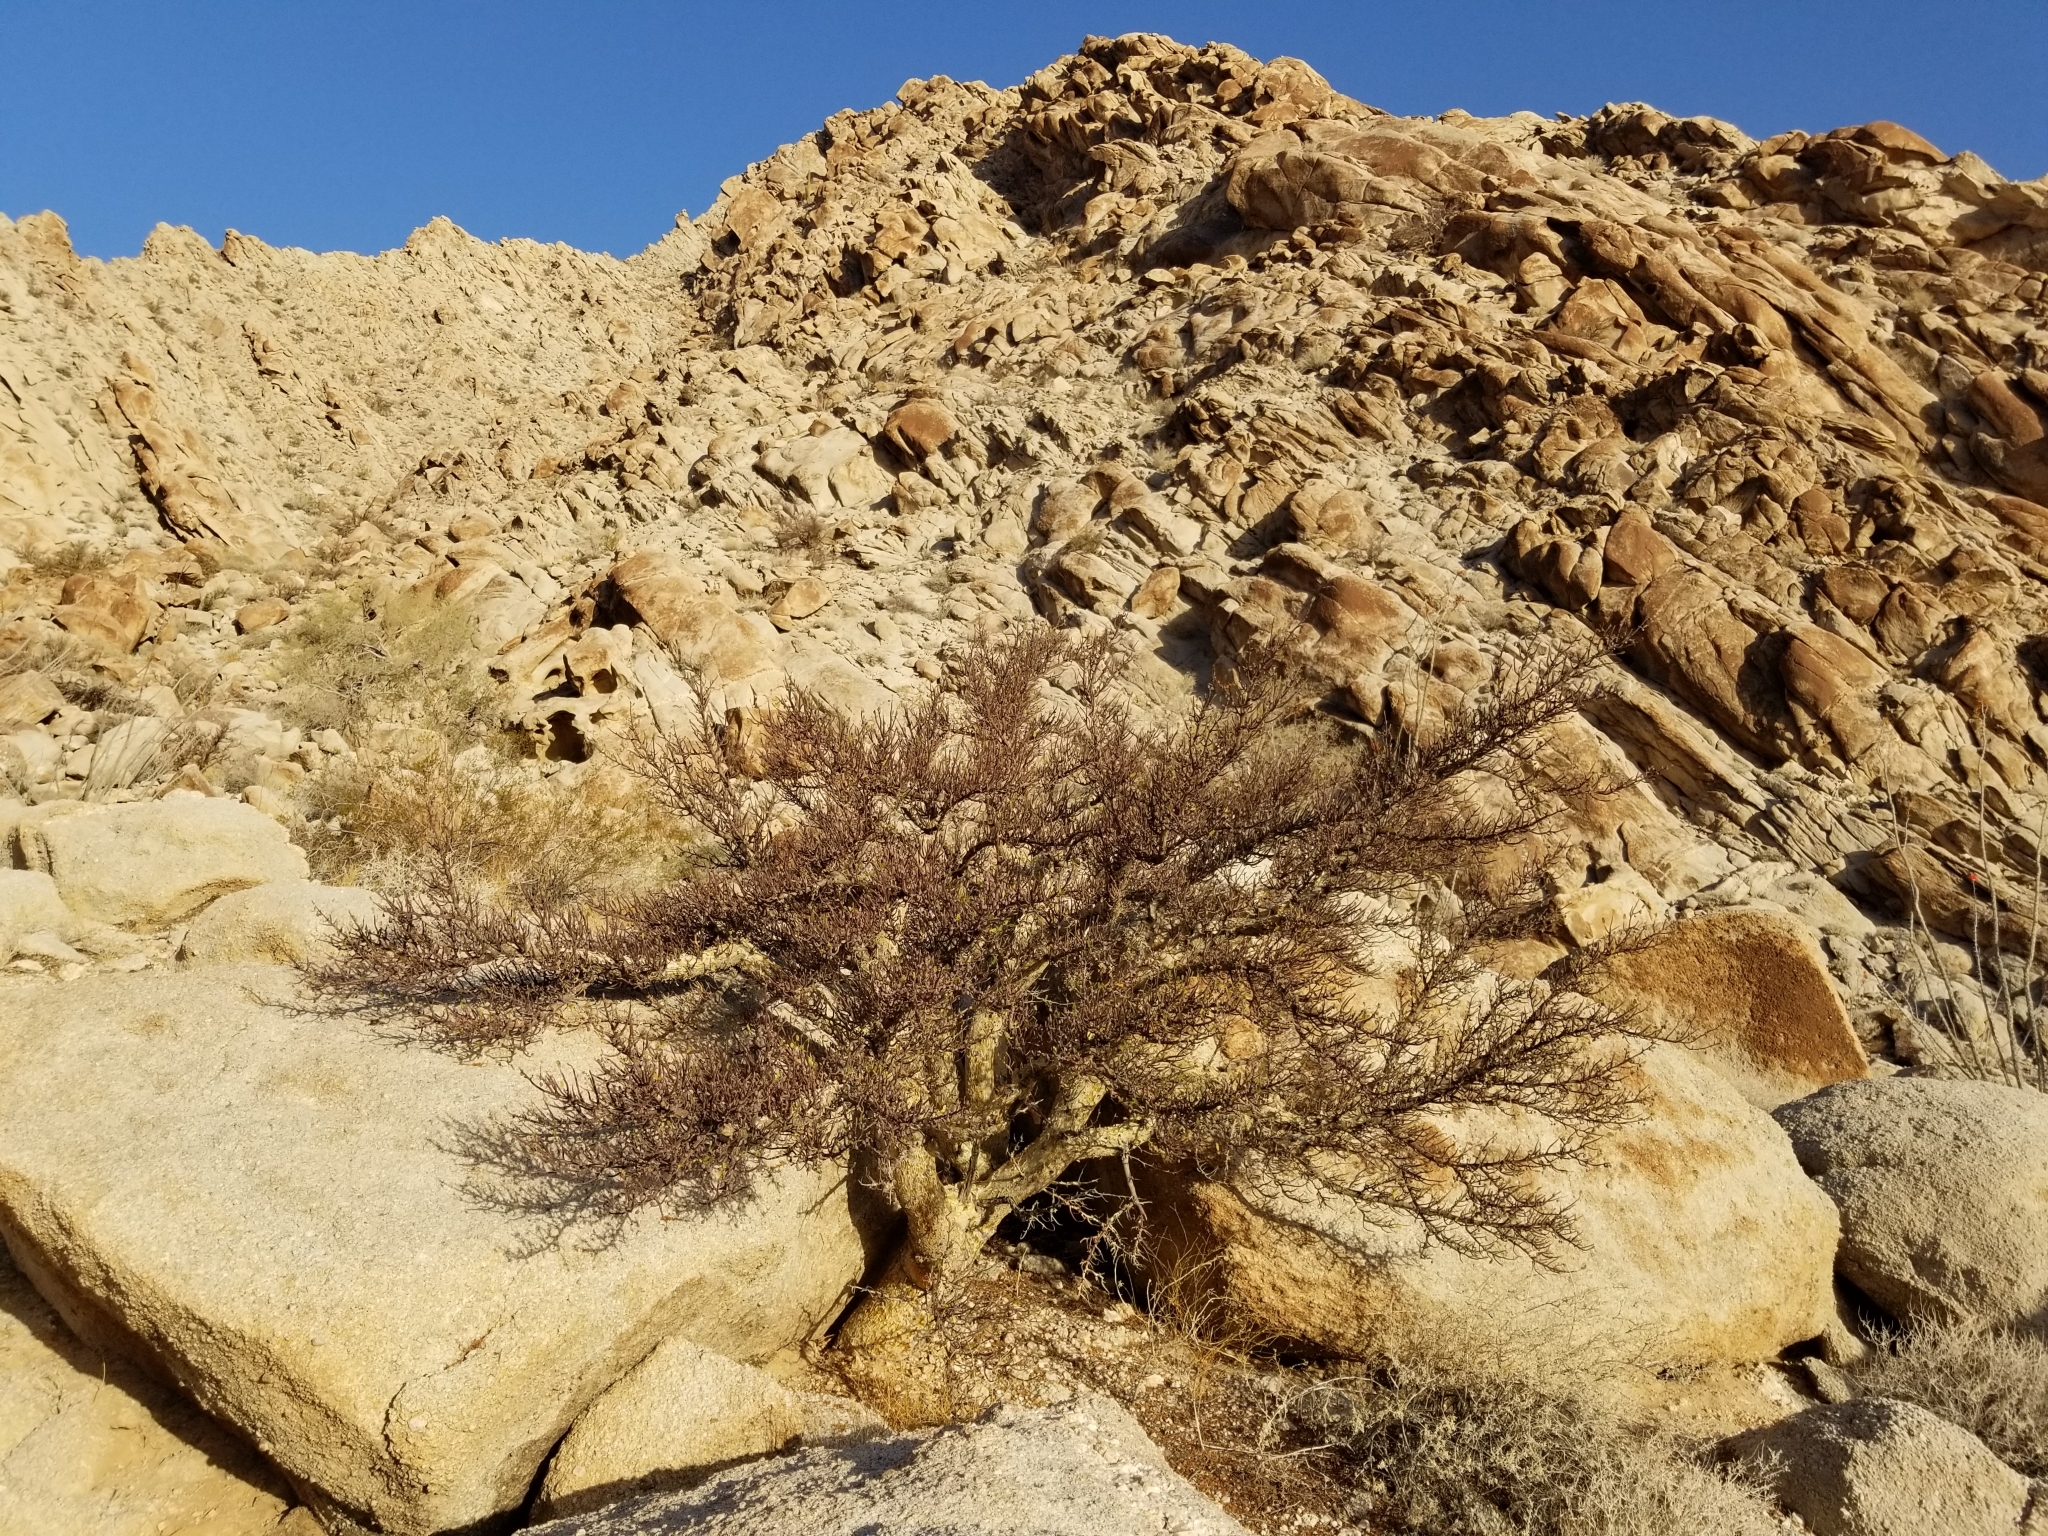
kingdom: Plantae
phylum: Tracheophyta
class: Magnoliopsida
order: Sapindales
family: Burseraceae
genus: Bursera
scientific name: Bursera microphylla
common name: Elephant tree
